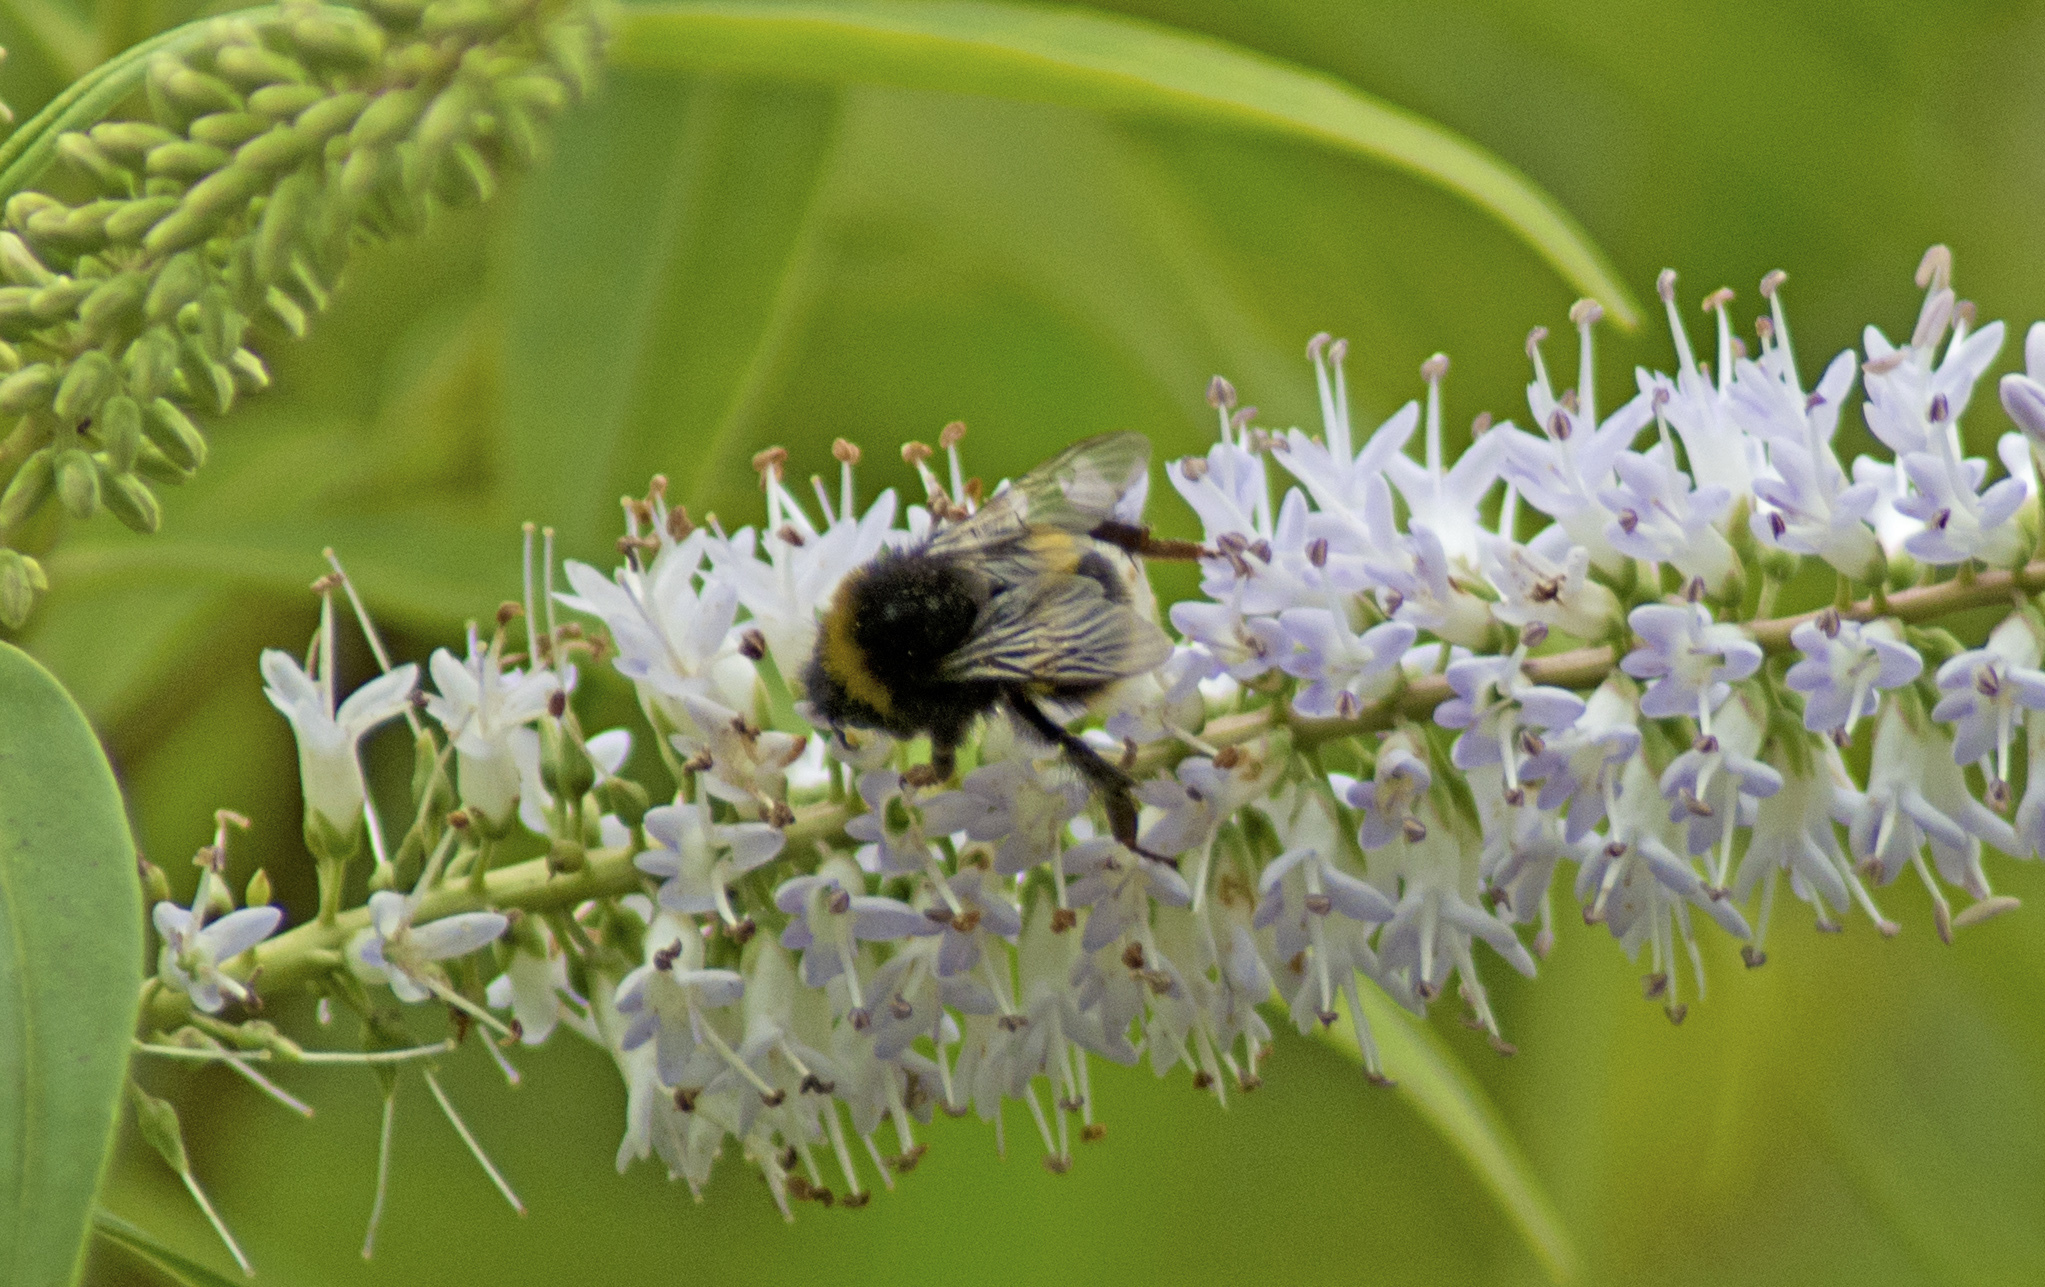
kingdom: Animalia
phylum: Arthropoda
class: Insecta
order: Hymenoptera
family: Apidae
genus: Bombus
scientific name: Bombus terrestris
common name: Buff-tailed bumblebee
